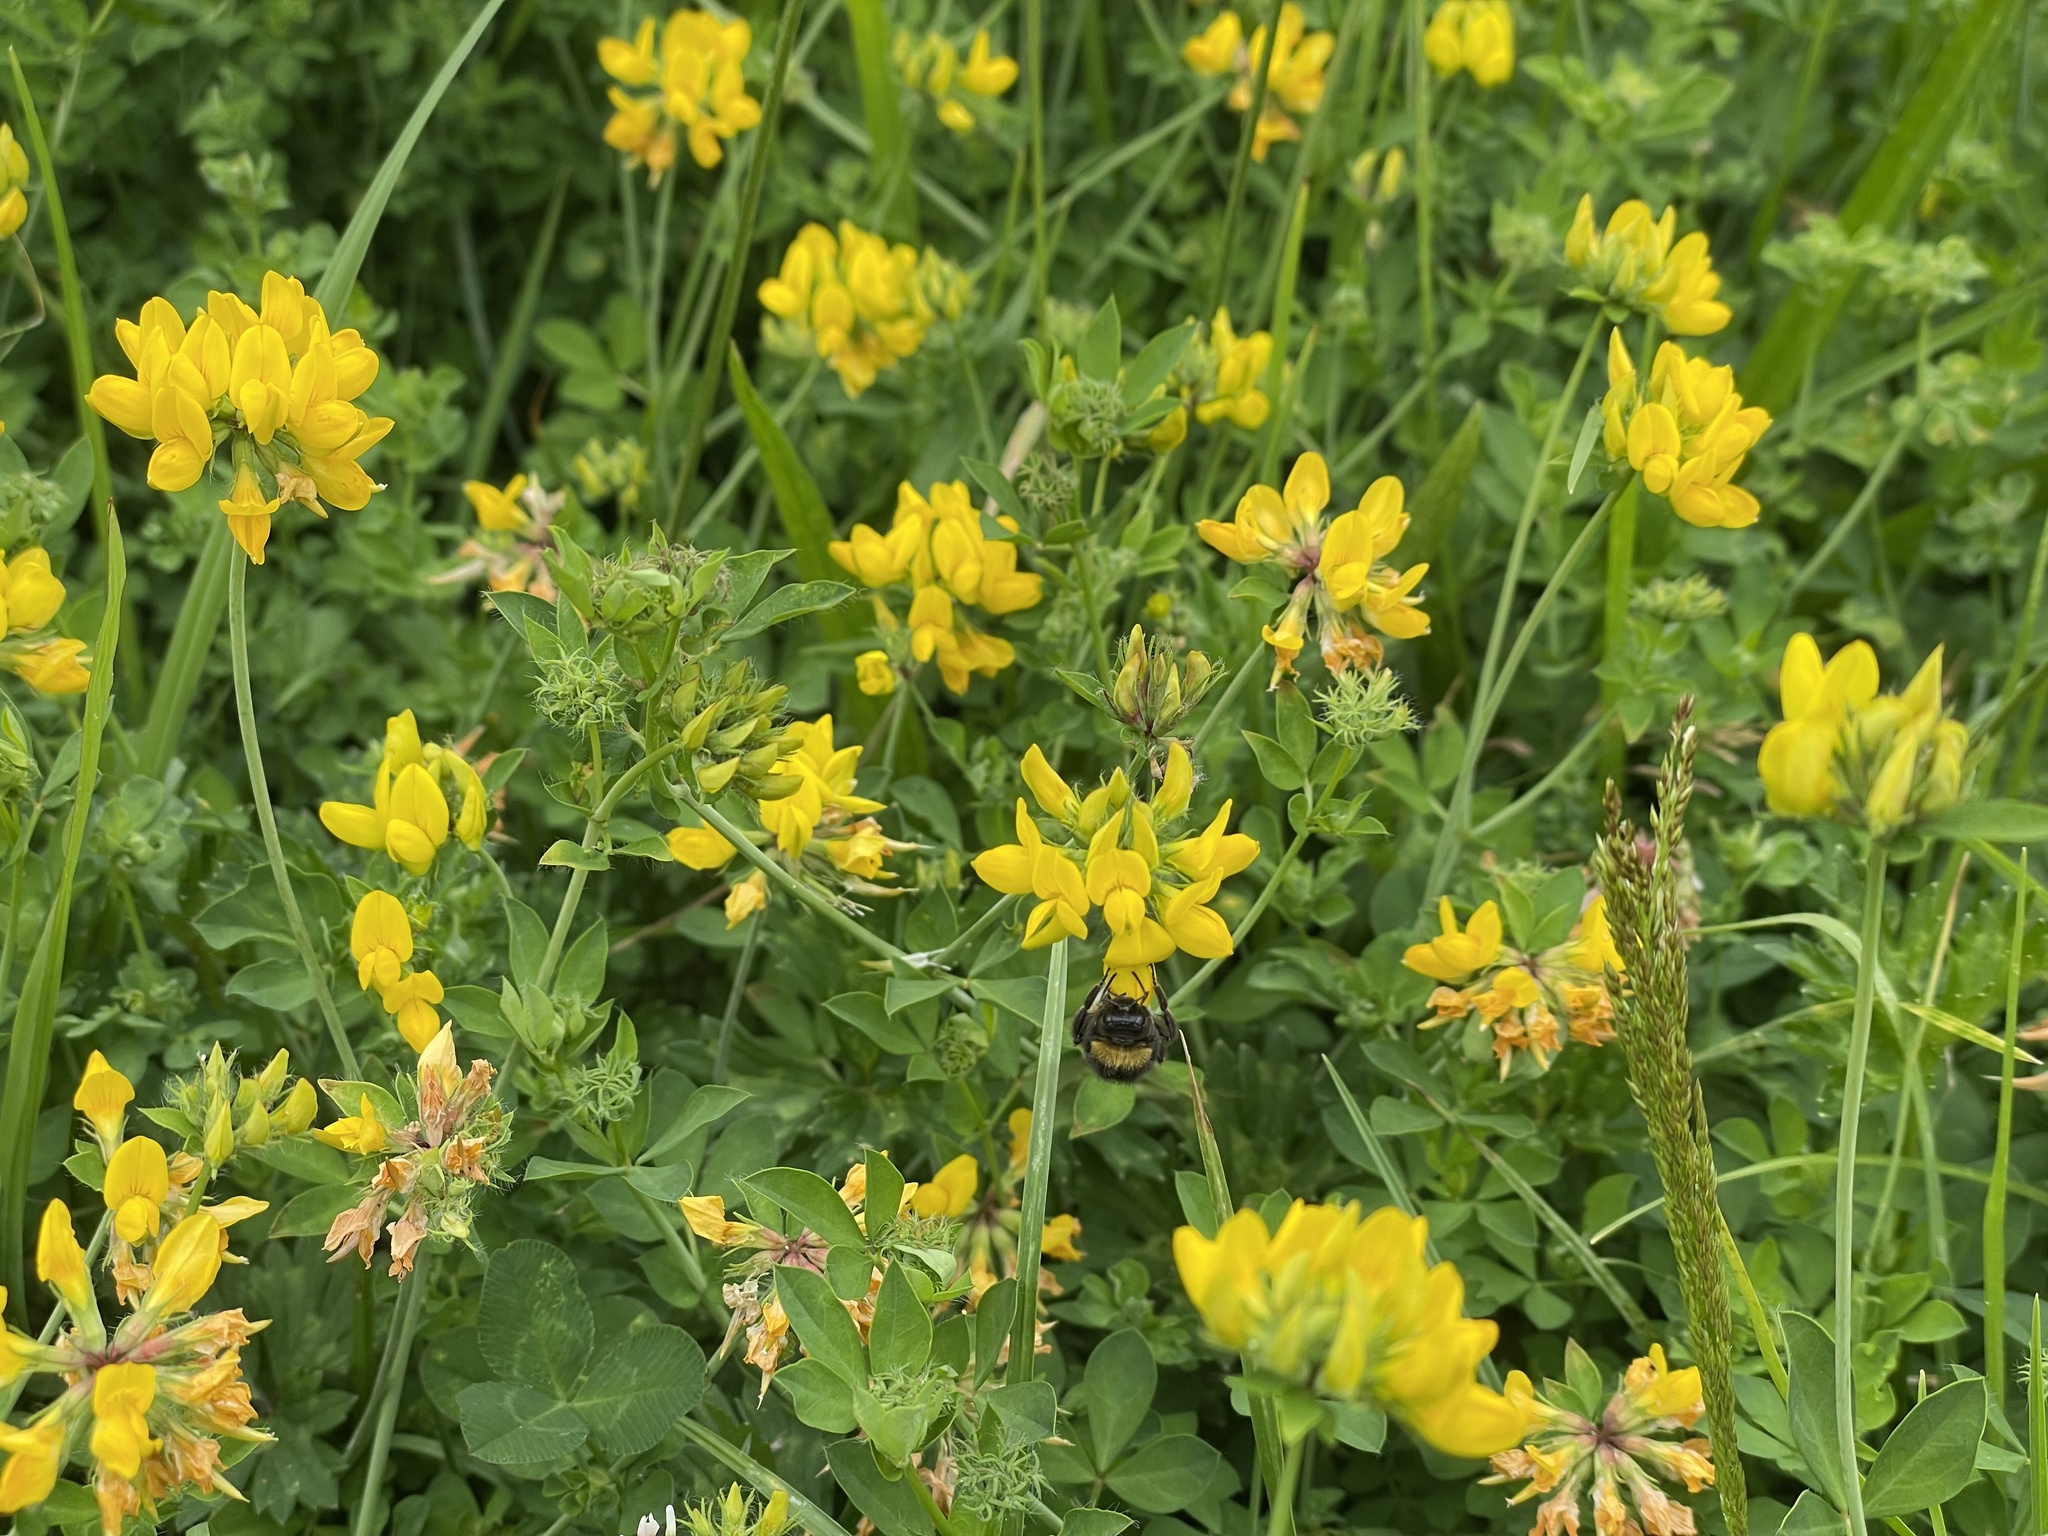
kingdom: Animalia
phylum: Arthropoda
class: Insecta
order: Hymenoptera
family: Apidae
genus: Bombus
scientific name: Bombus terrestris
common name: Buff-tailed bumblebee
